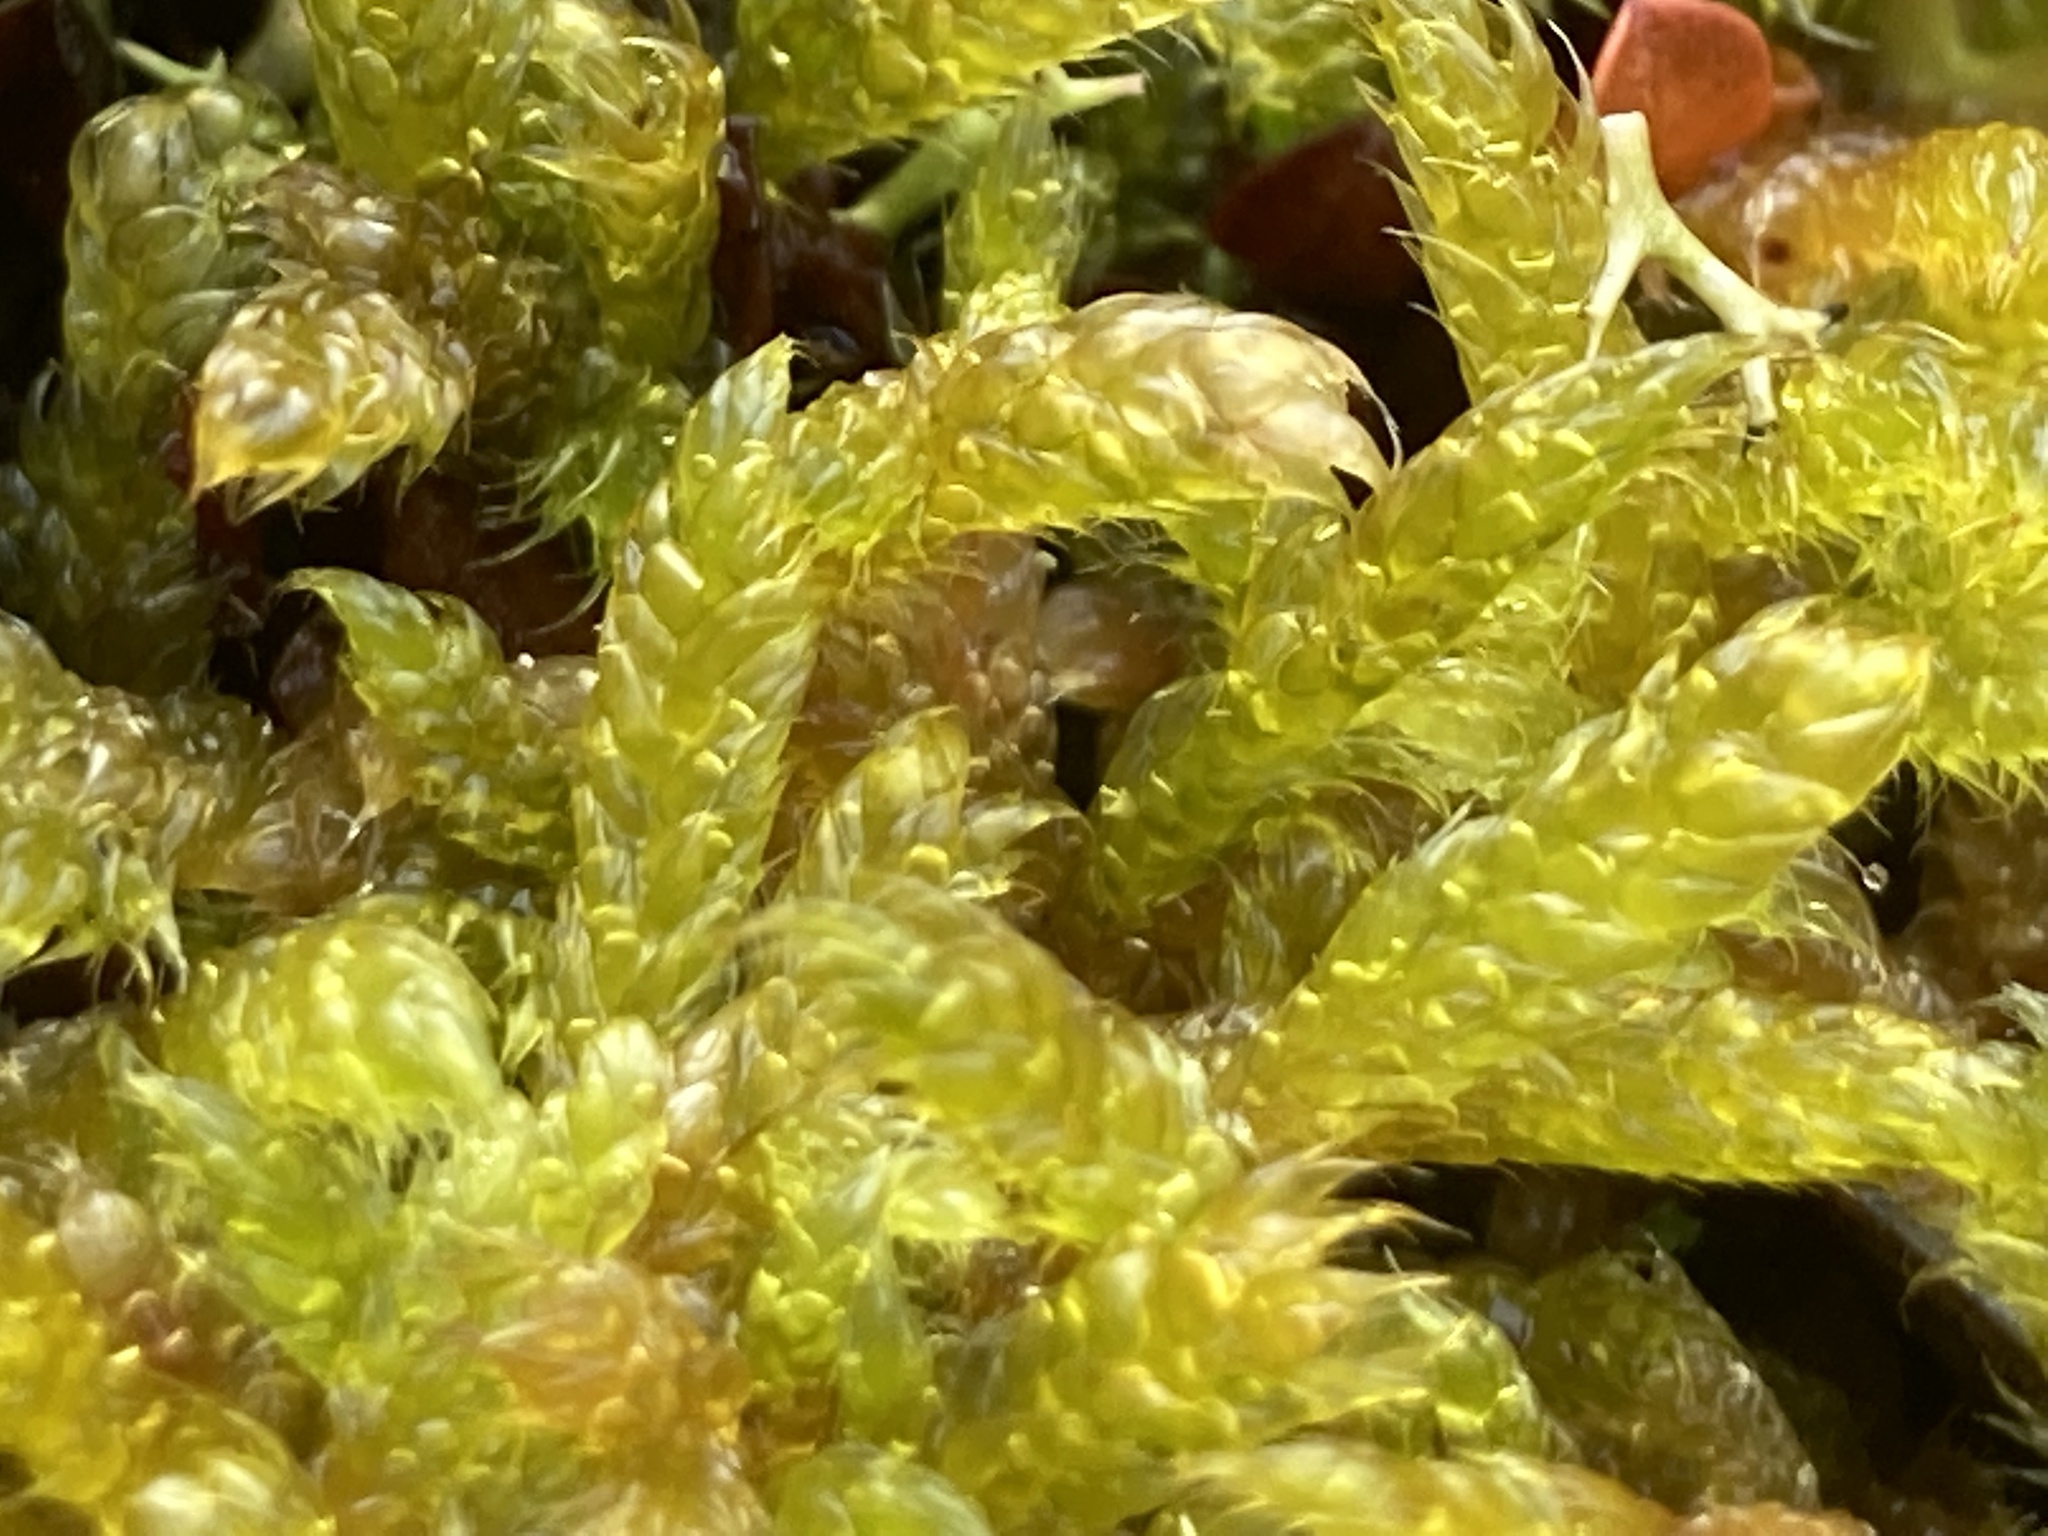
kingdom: Plantae
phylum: Bryophyta
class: Bryopsida
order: Hypnales
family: Hypnaceae
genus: Hypnum
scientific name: Hypnum cupressiforme
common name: Cypress-leaved plait-moss
